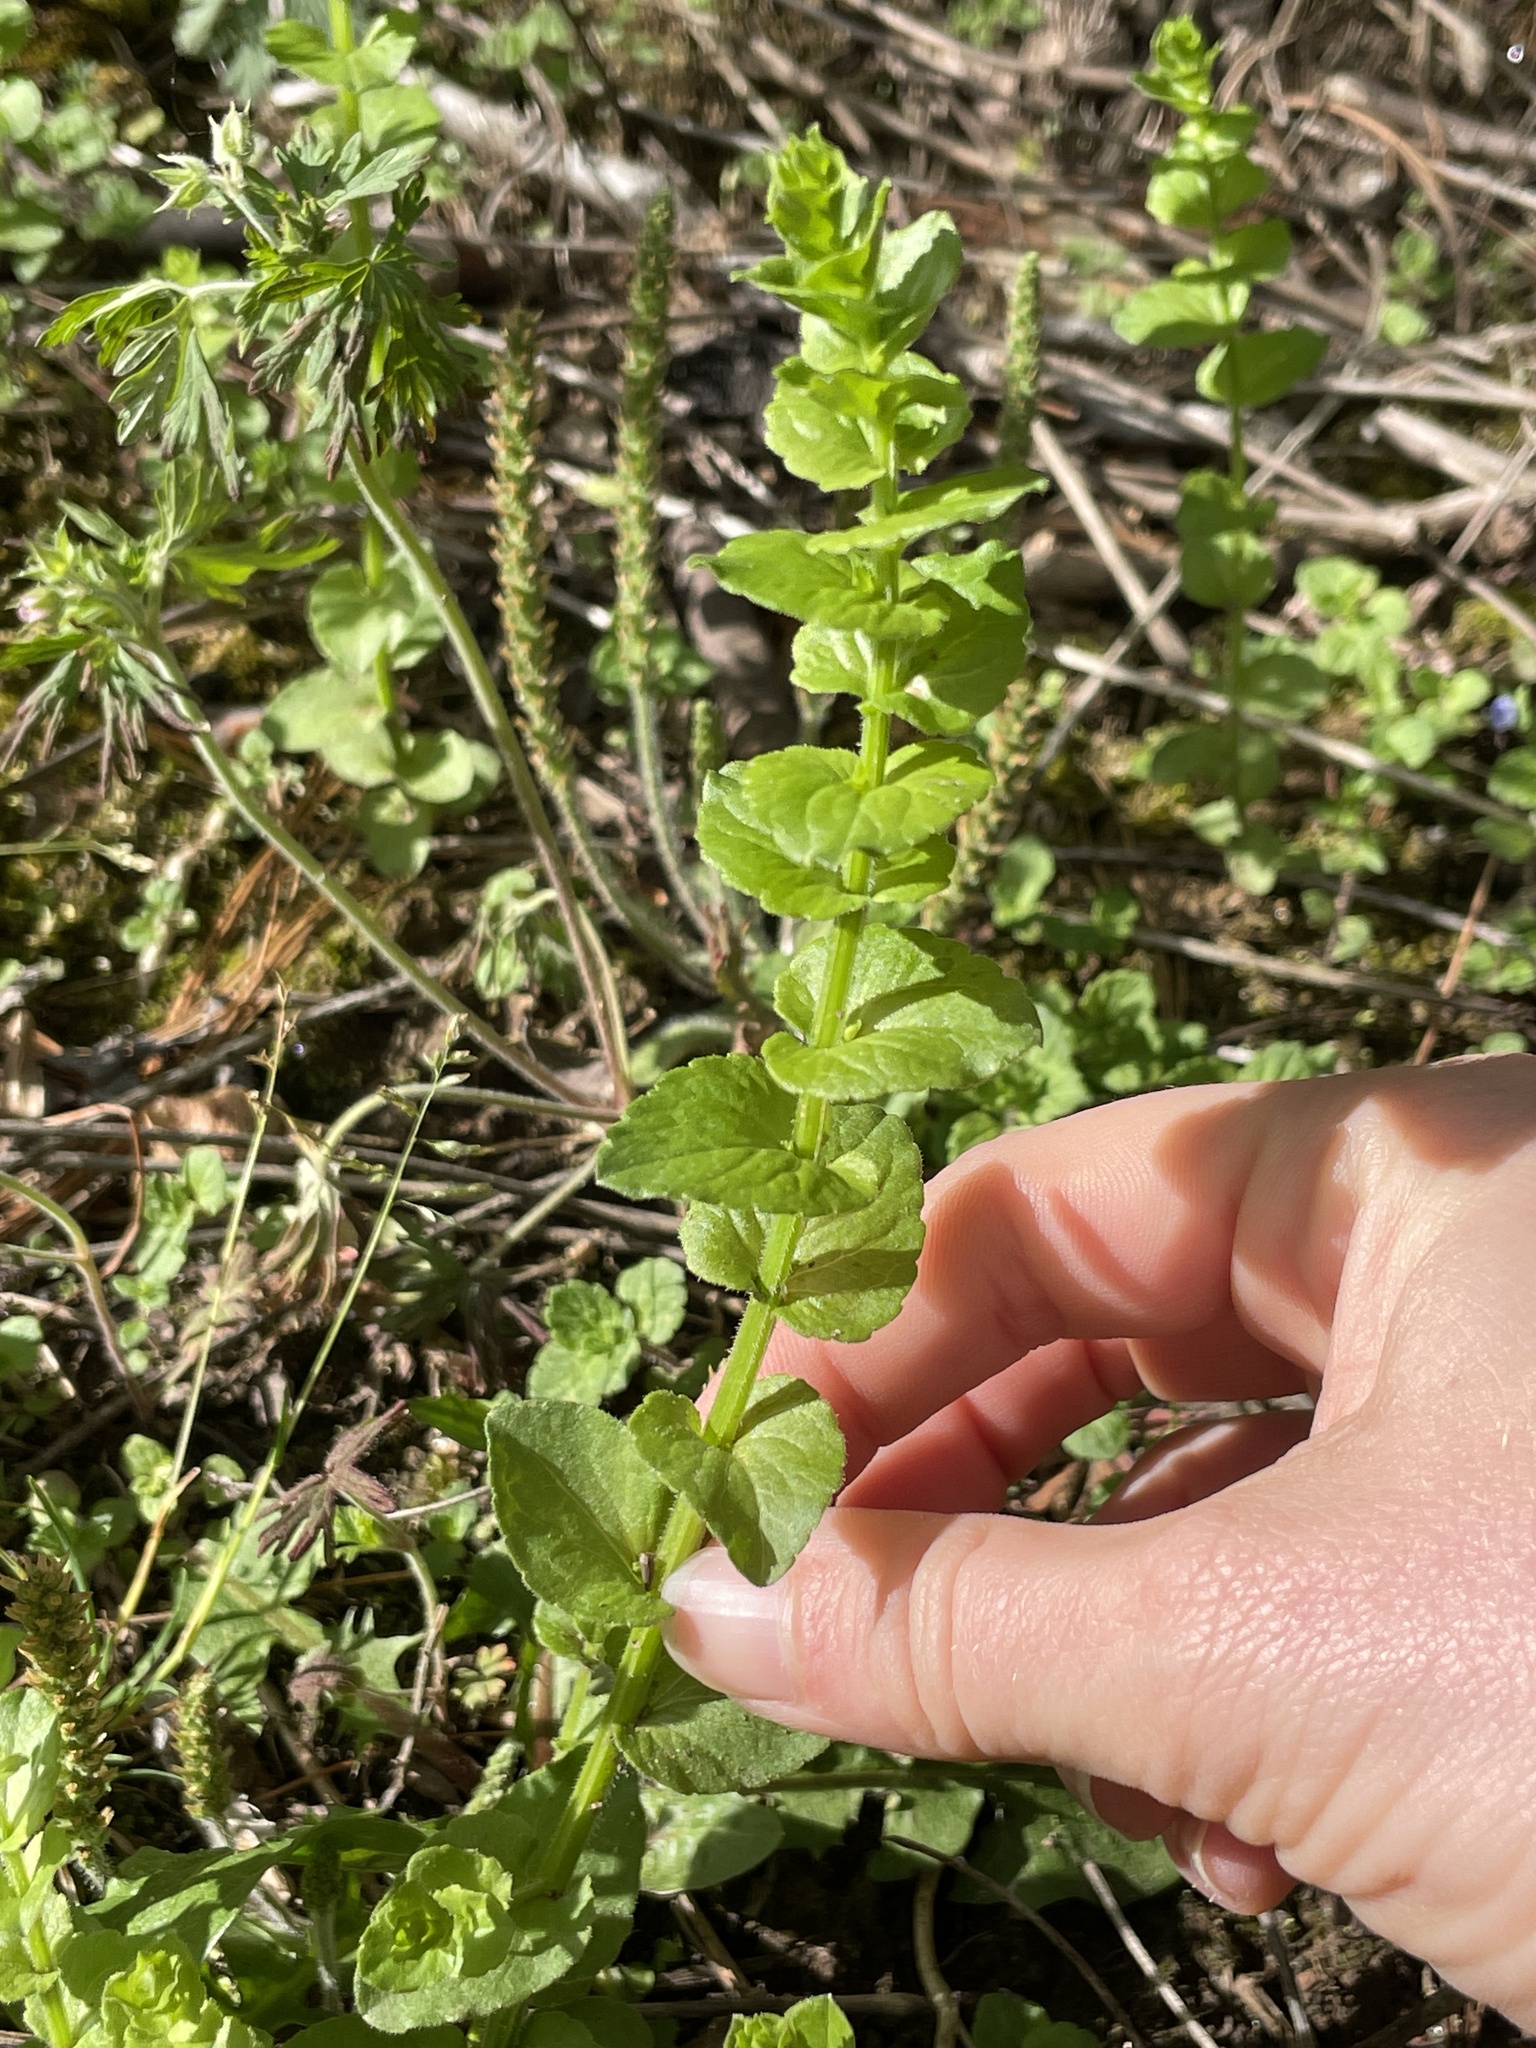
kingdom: Plantae
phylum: Tracheophyta
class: Magnoliopsida
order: Asterales
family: Campanulaceae
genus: Triodanis
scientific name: Triodanis perfoliata
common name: Clasping venus' looking-glass
